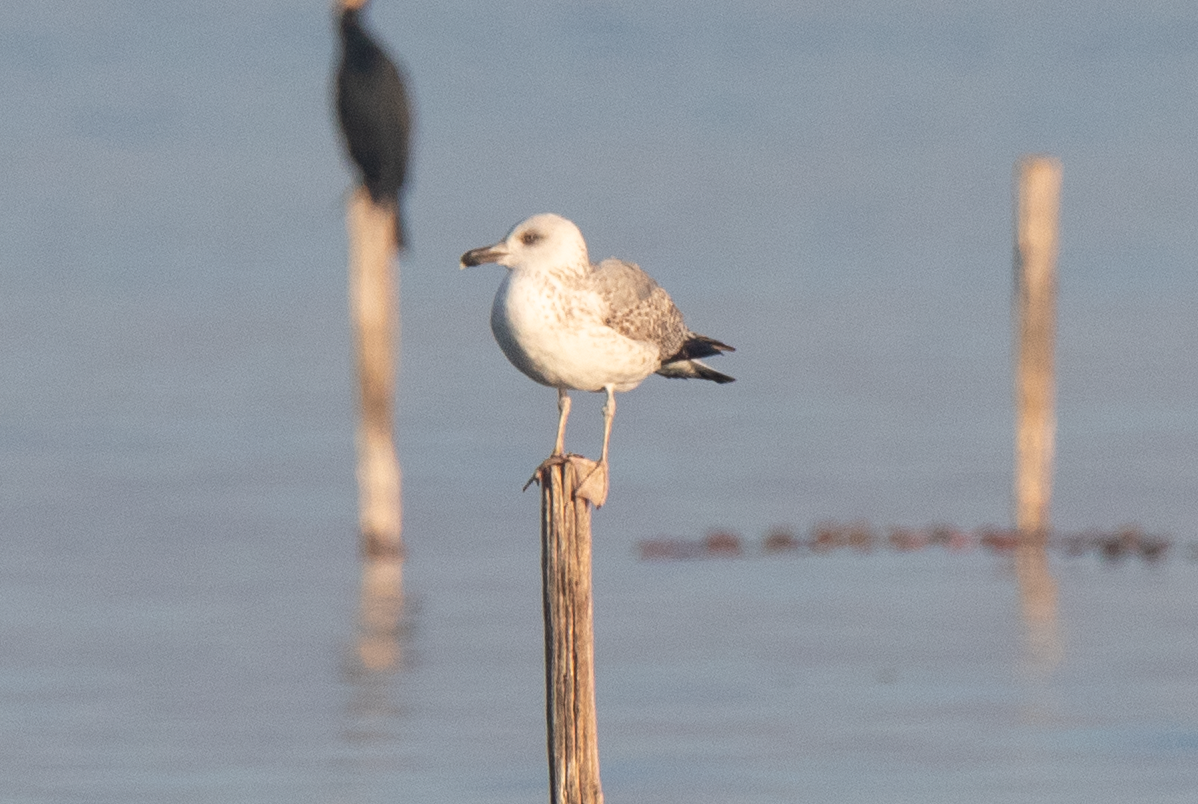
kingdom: Animalia
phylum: Chordata
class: Aves
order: Charadriiformes
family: Laridae
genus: Larus
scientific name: Larus michahellis
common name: Yellow-legged gull
